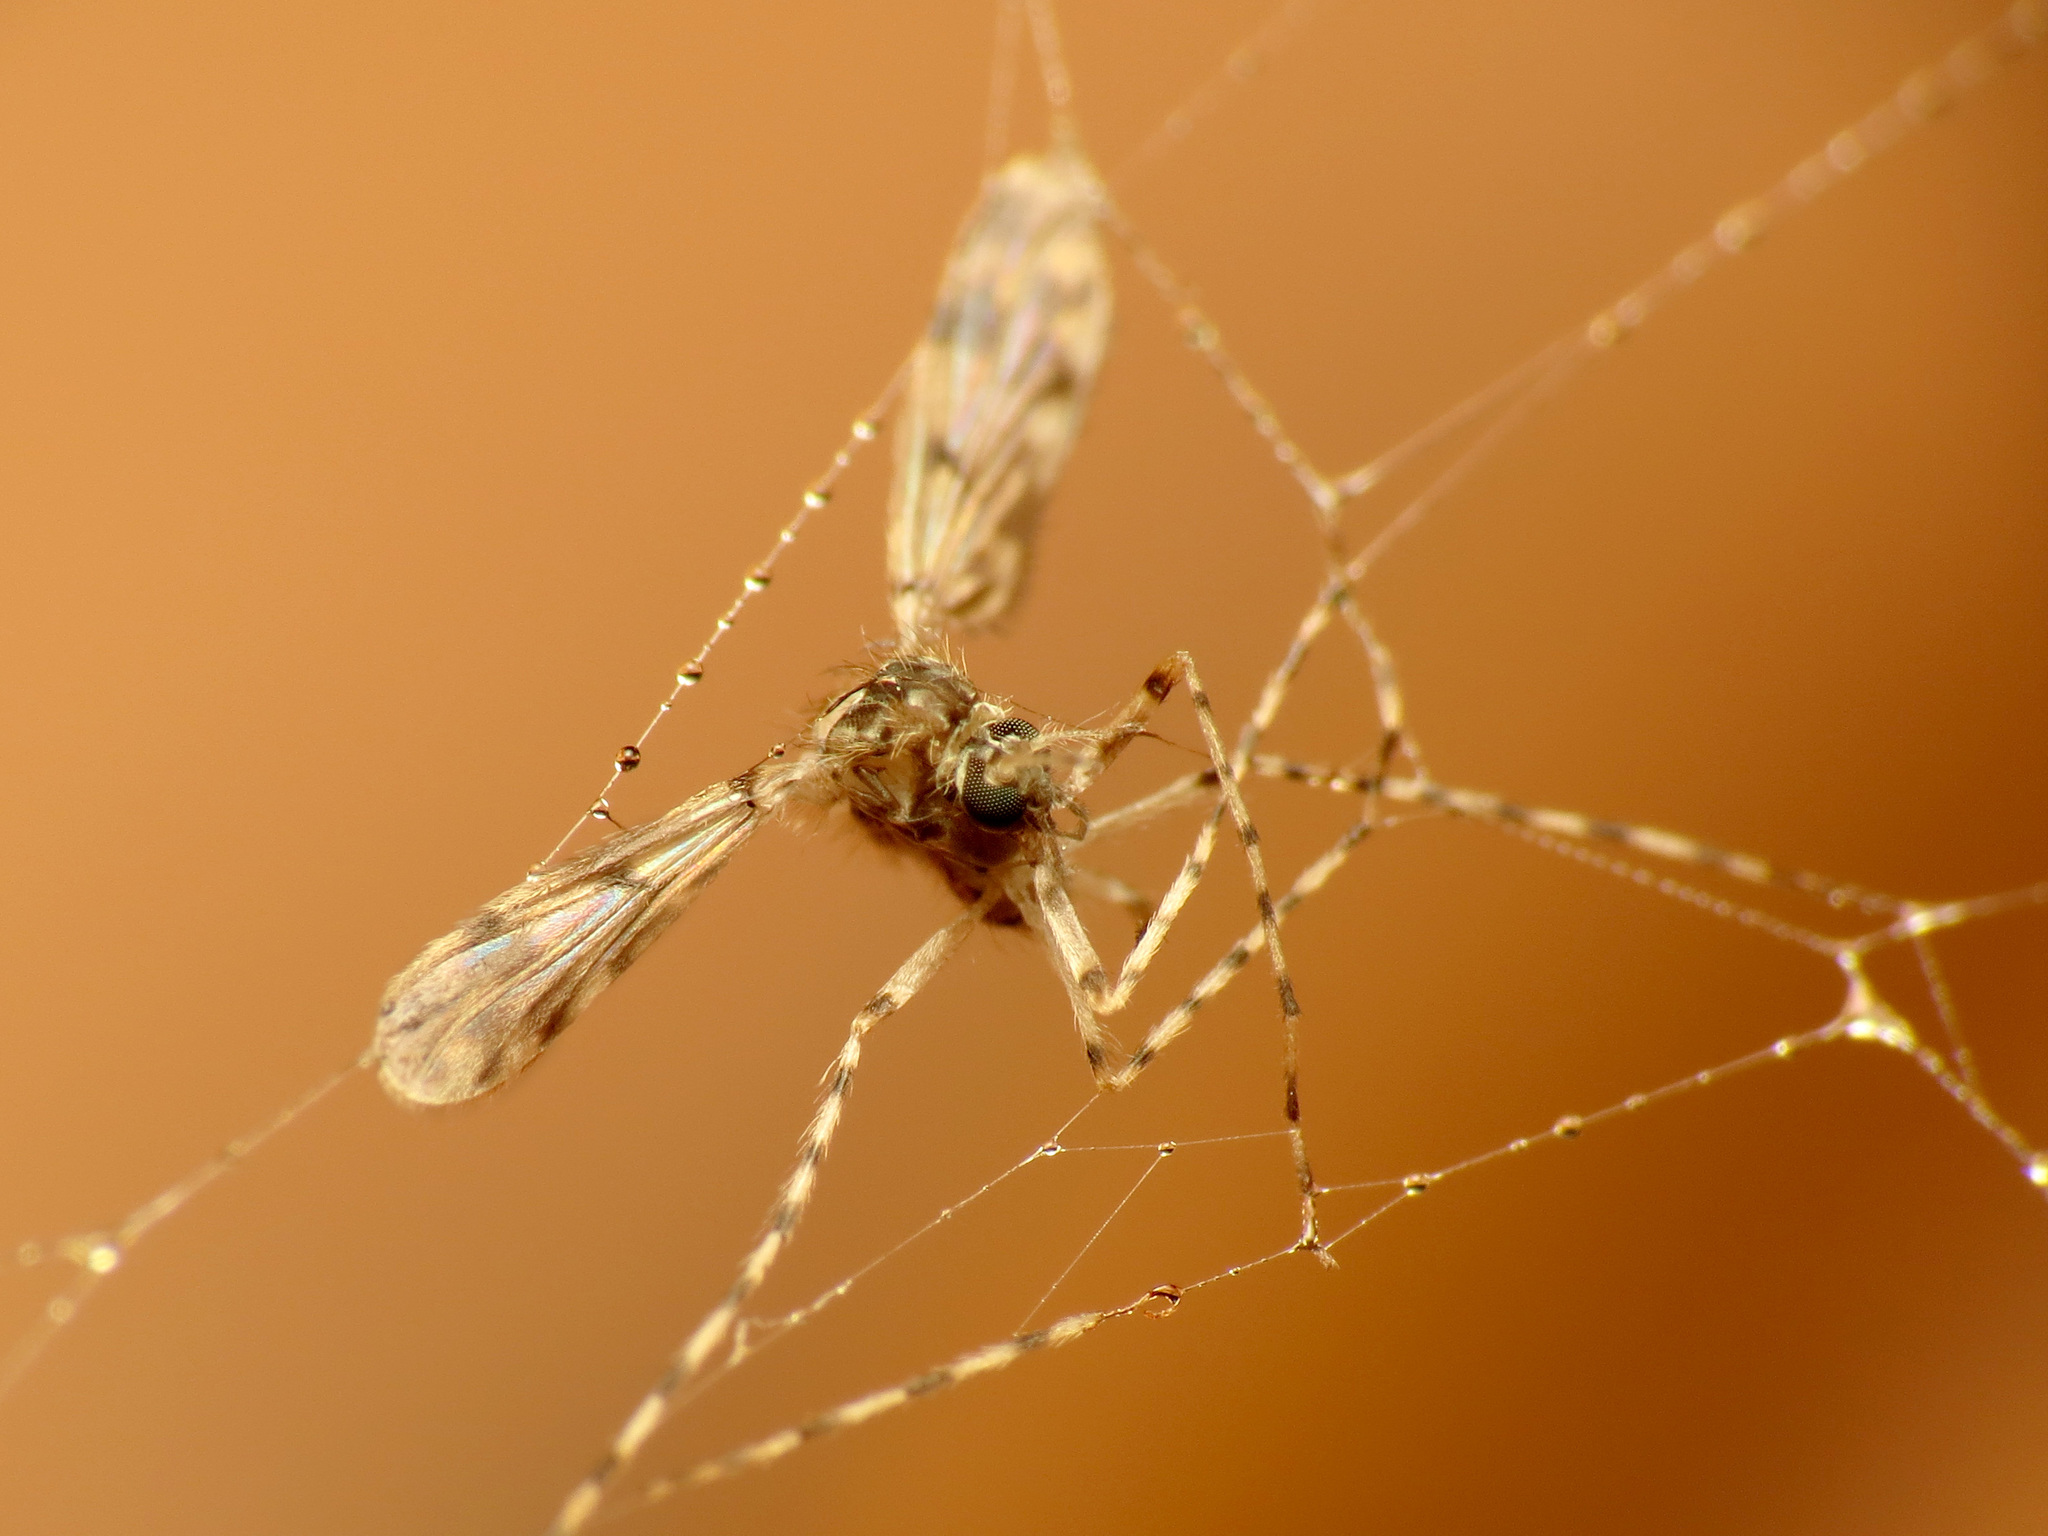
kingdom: Animalia
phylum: Arthropoda
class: Insecta
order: Diptera
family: Chironomidae
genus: Ablabesmyia
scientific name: Ablabesmyia
